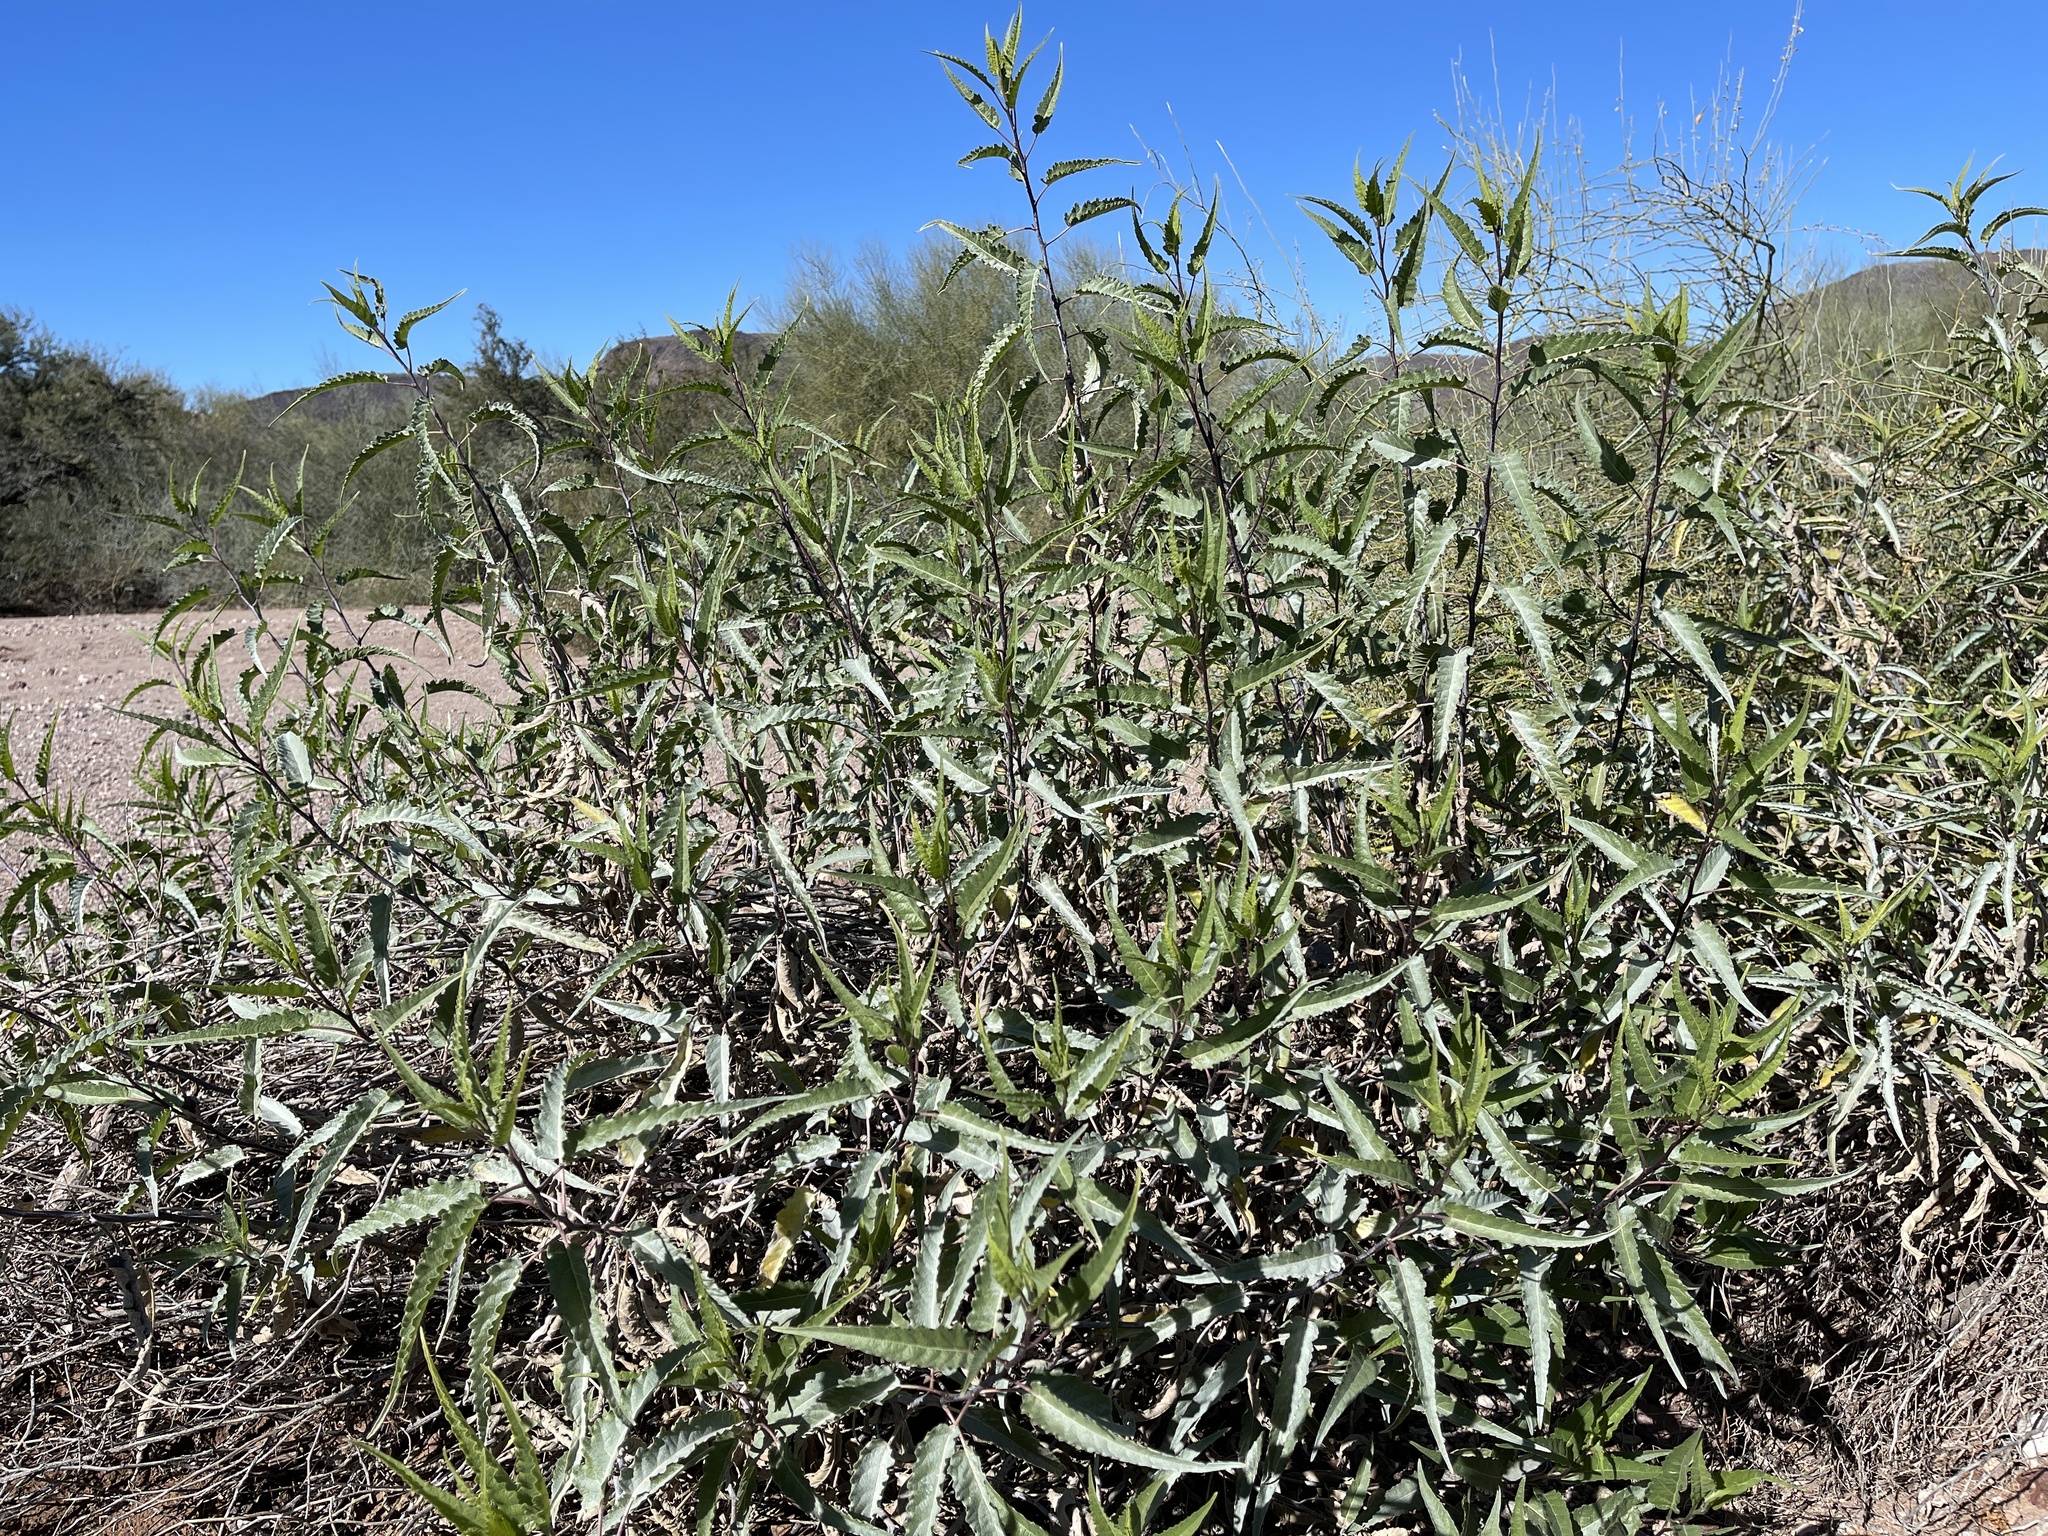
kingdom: Plantae
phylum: Tracheophyta
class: Magnoliopsida
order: Asterales
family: Asteraceae
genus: Ambrosia
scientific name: Ambrosia ambrosioides
